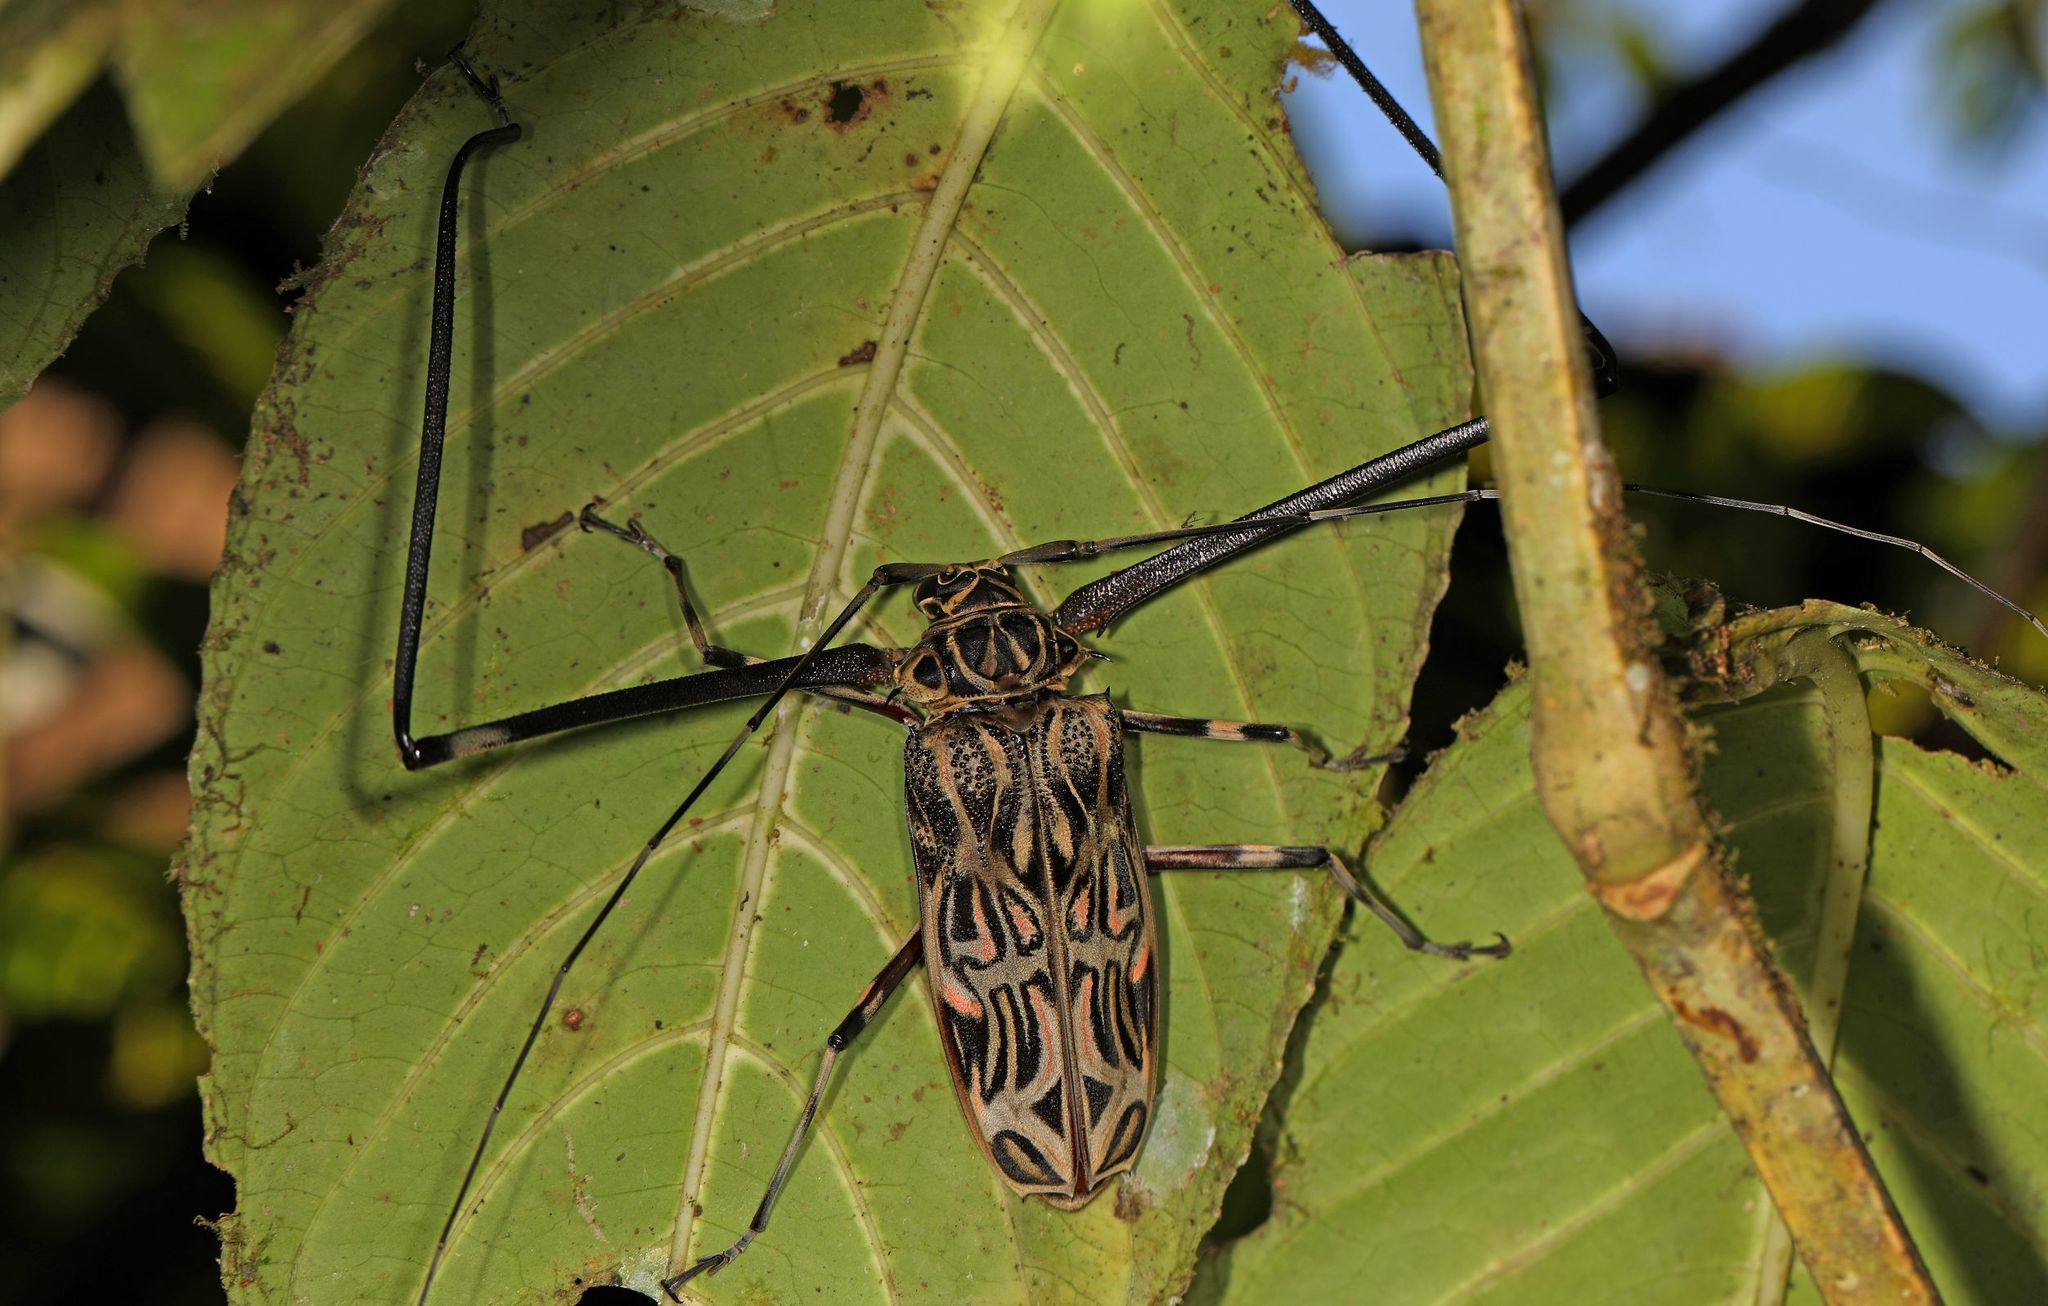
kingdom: Animalia
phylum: Arthropoda
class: Insecta
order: Coleoptera
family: Cerambycidae
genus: Acrocinus
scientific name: Acrocinus longimanus
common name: Arlequin
